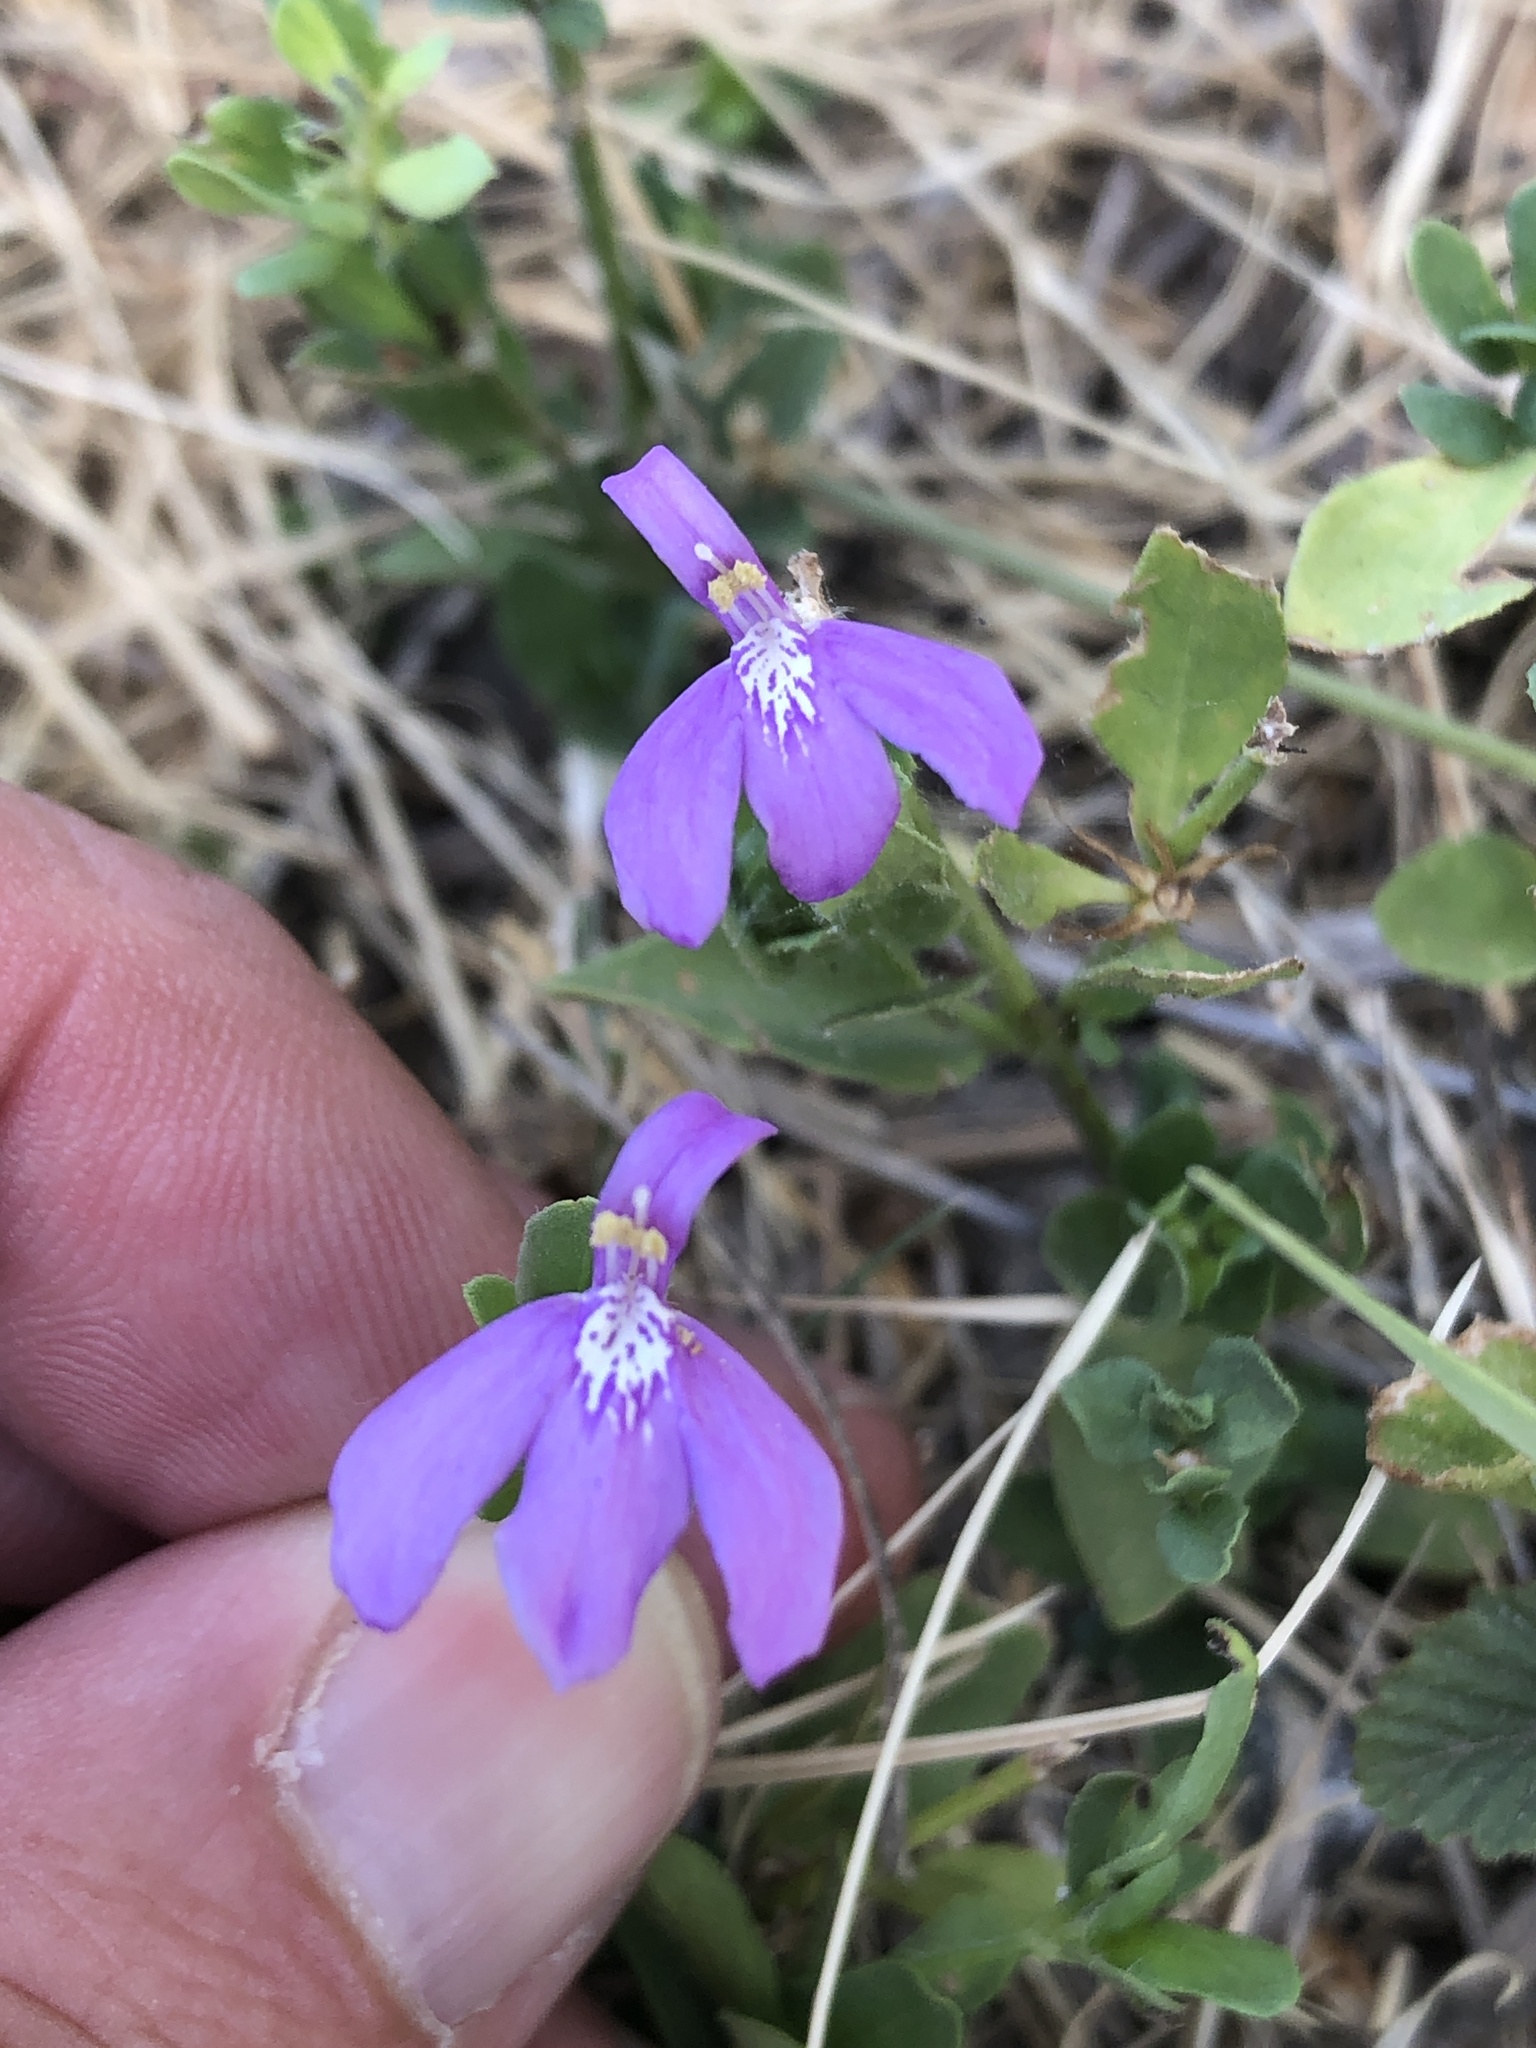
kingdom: Plantae
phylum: Tracheophyta
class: Magnoliopsida
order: Lamiales
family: Acanthaceae
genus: Justicia
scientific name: Justicia pilosella
